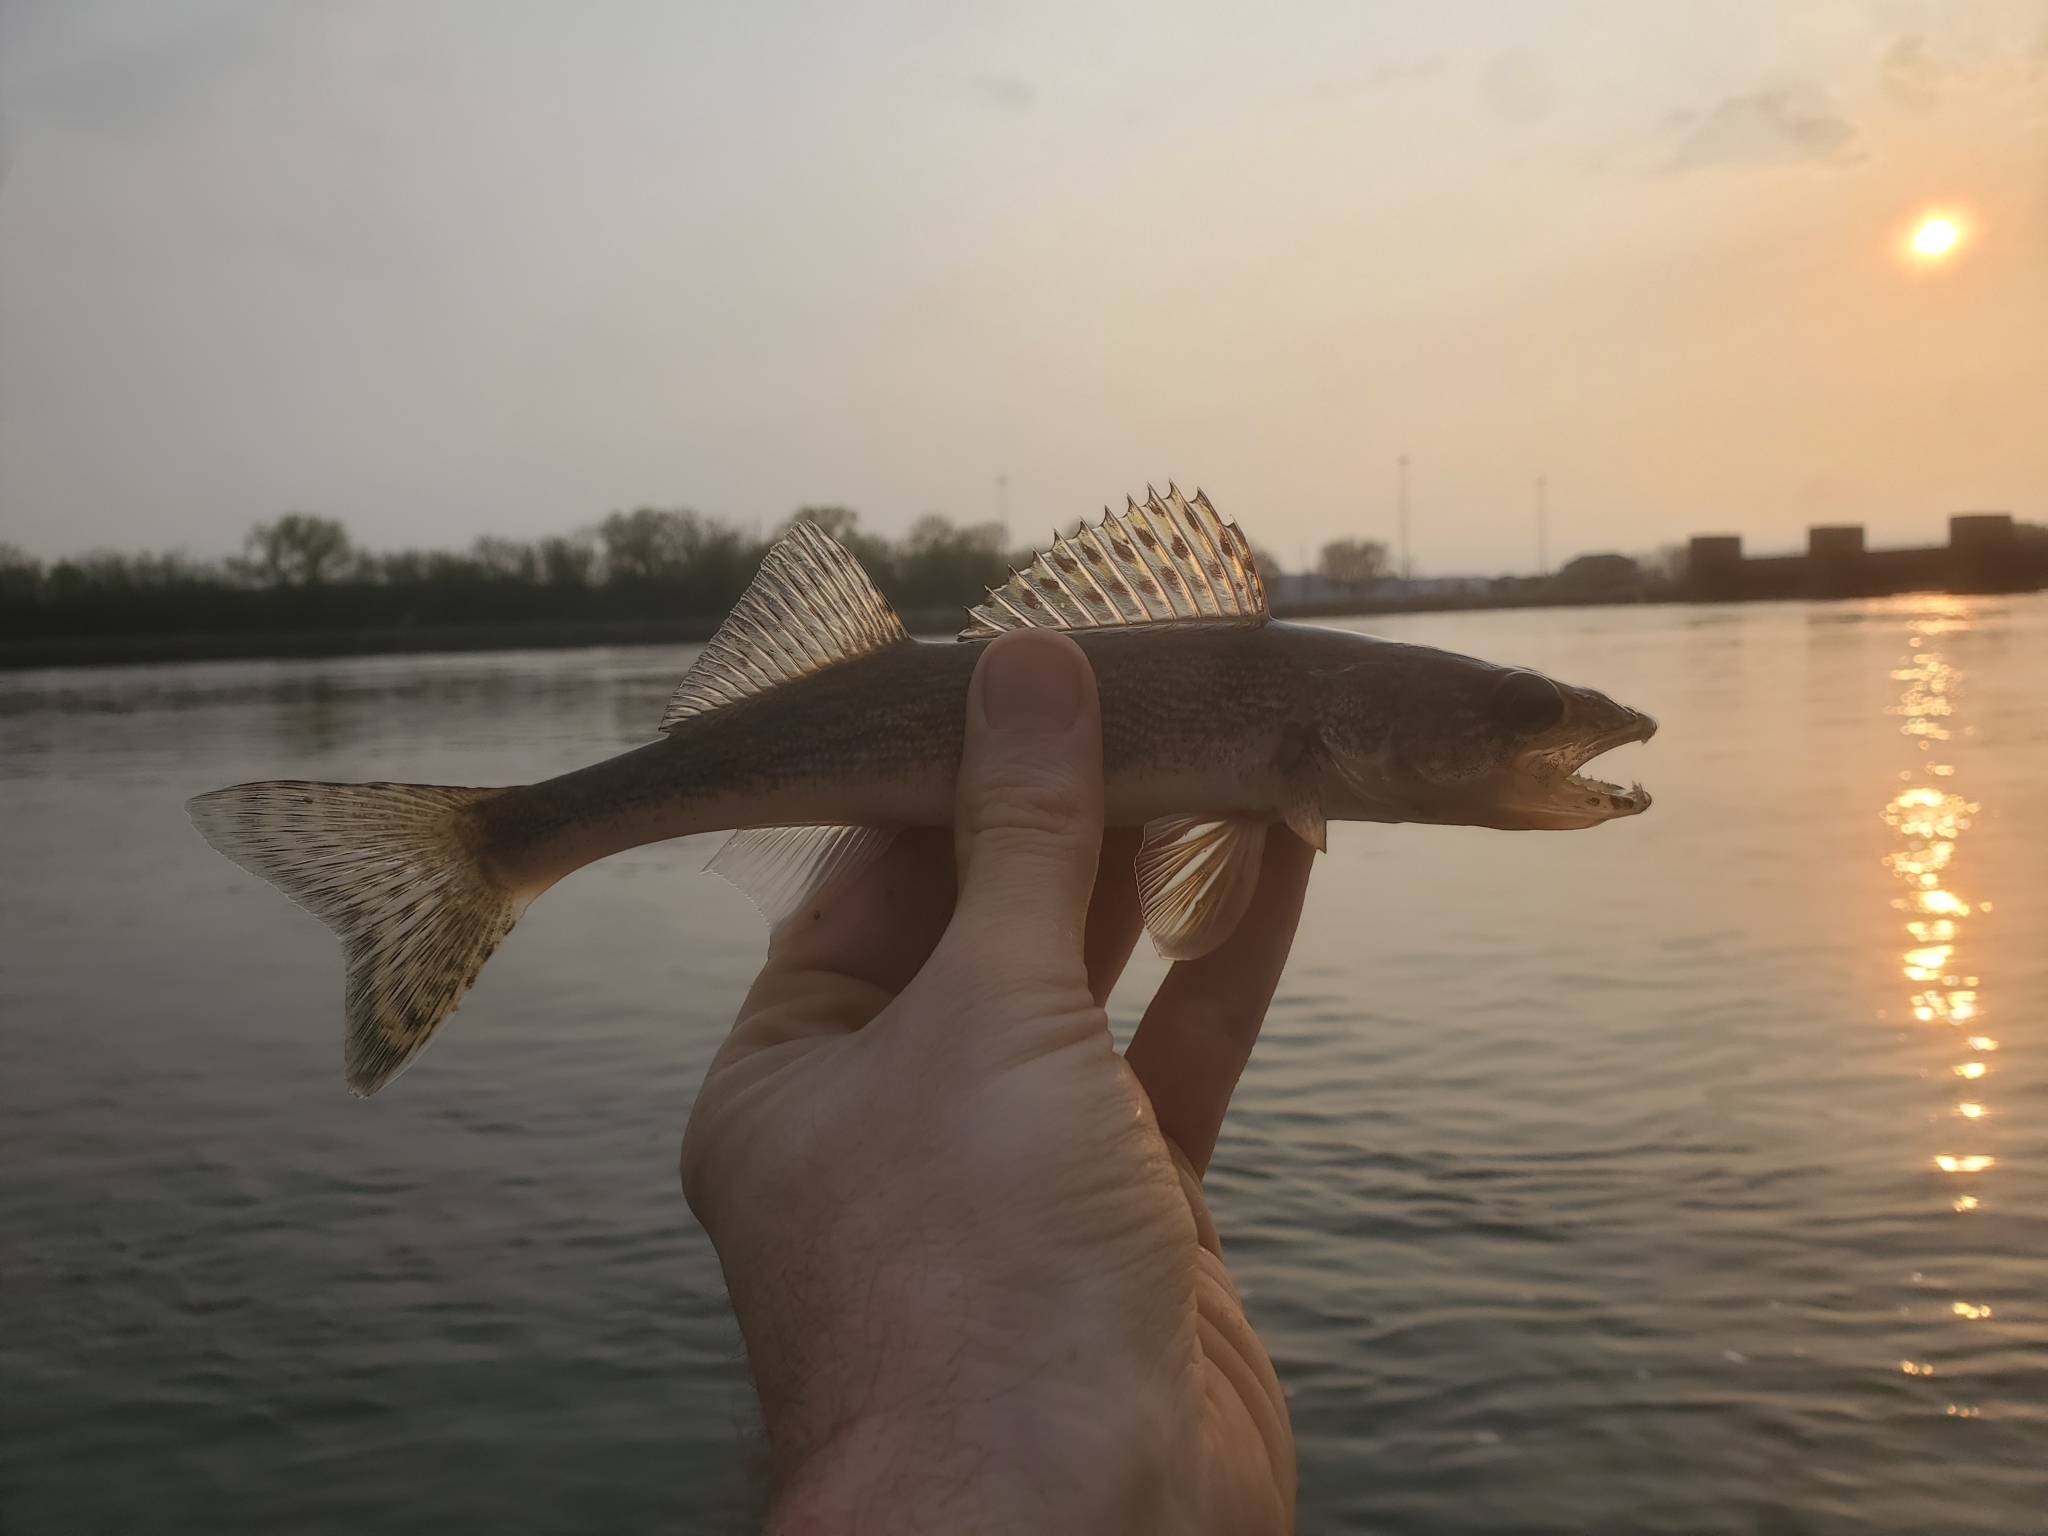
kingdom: Animalia
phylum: Chordata
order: Perciformes
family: Percidae
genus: Sander
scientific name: Sander canadensis
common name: Sauger
